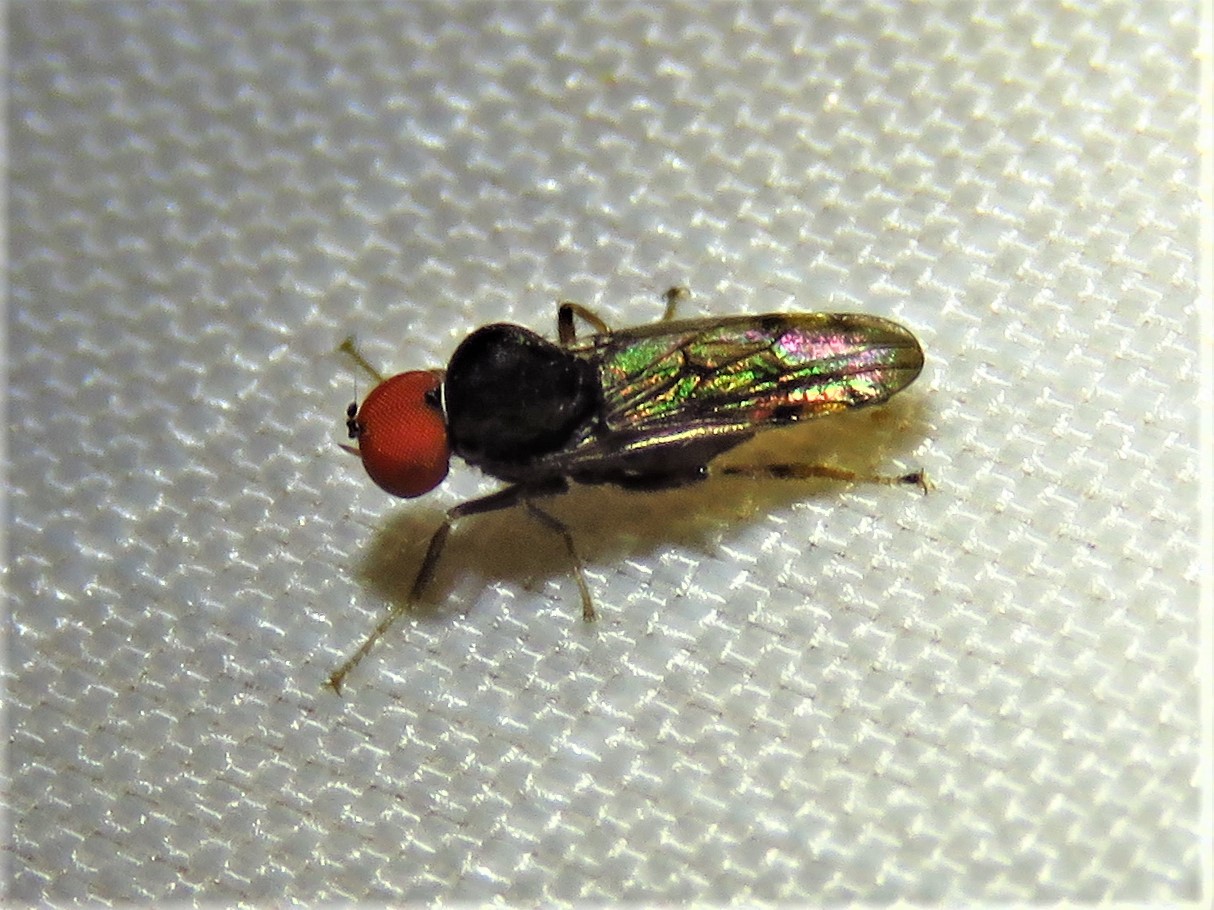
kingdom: Animalia
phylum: Arthropoda
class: Insecta
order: Diptera
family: Hybotidae
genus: Syneches
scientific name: Syneches simplex
